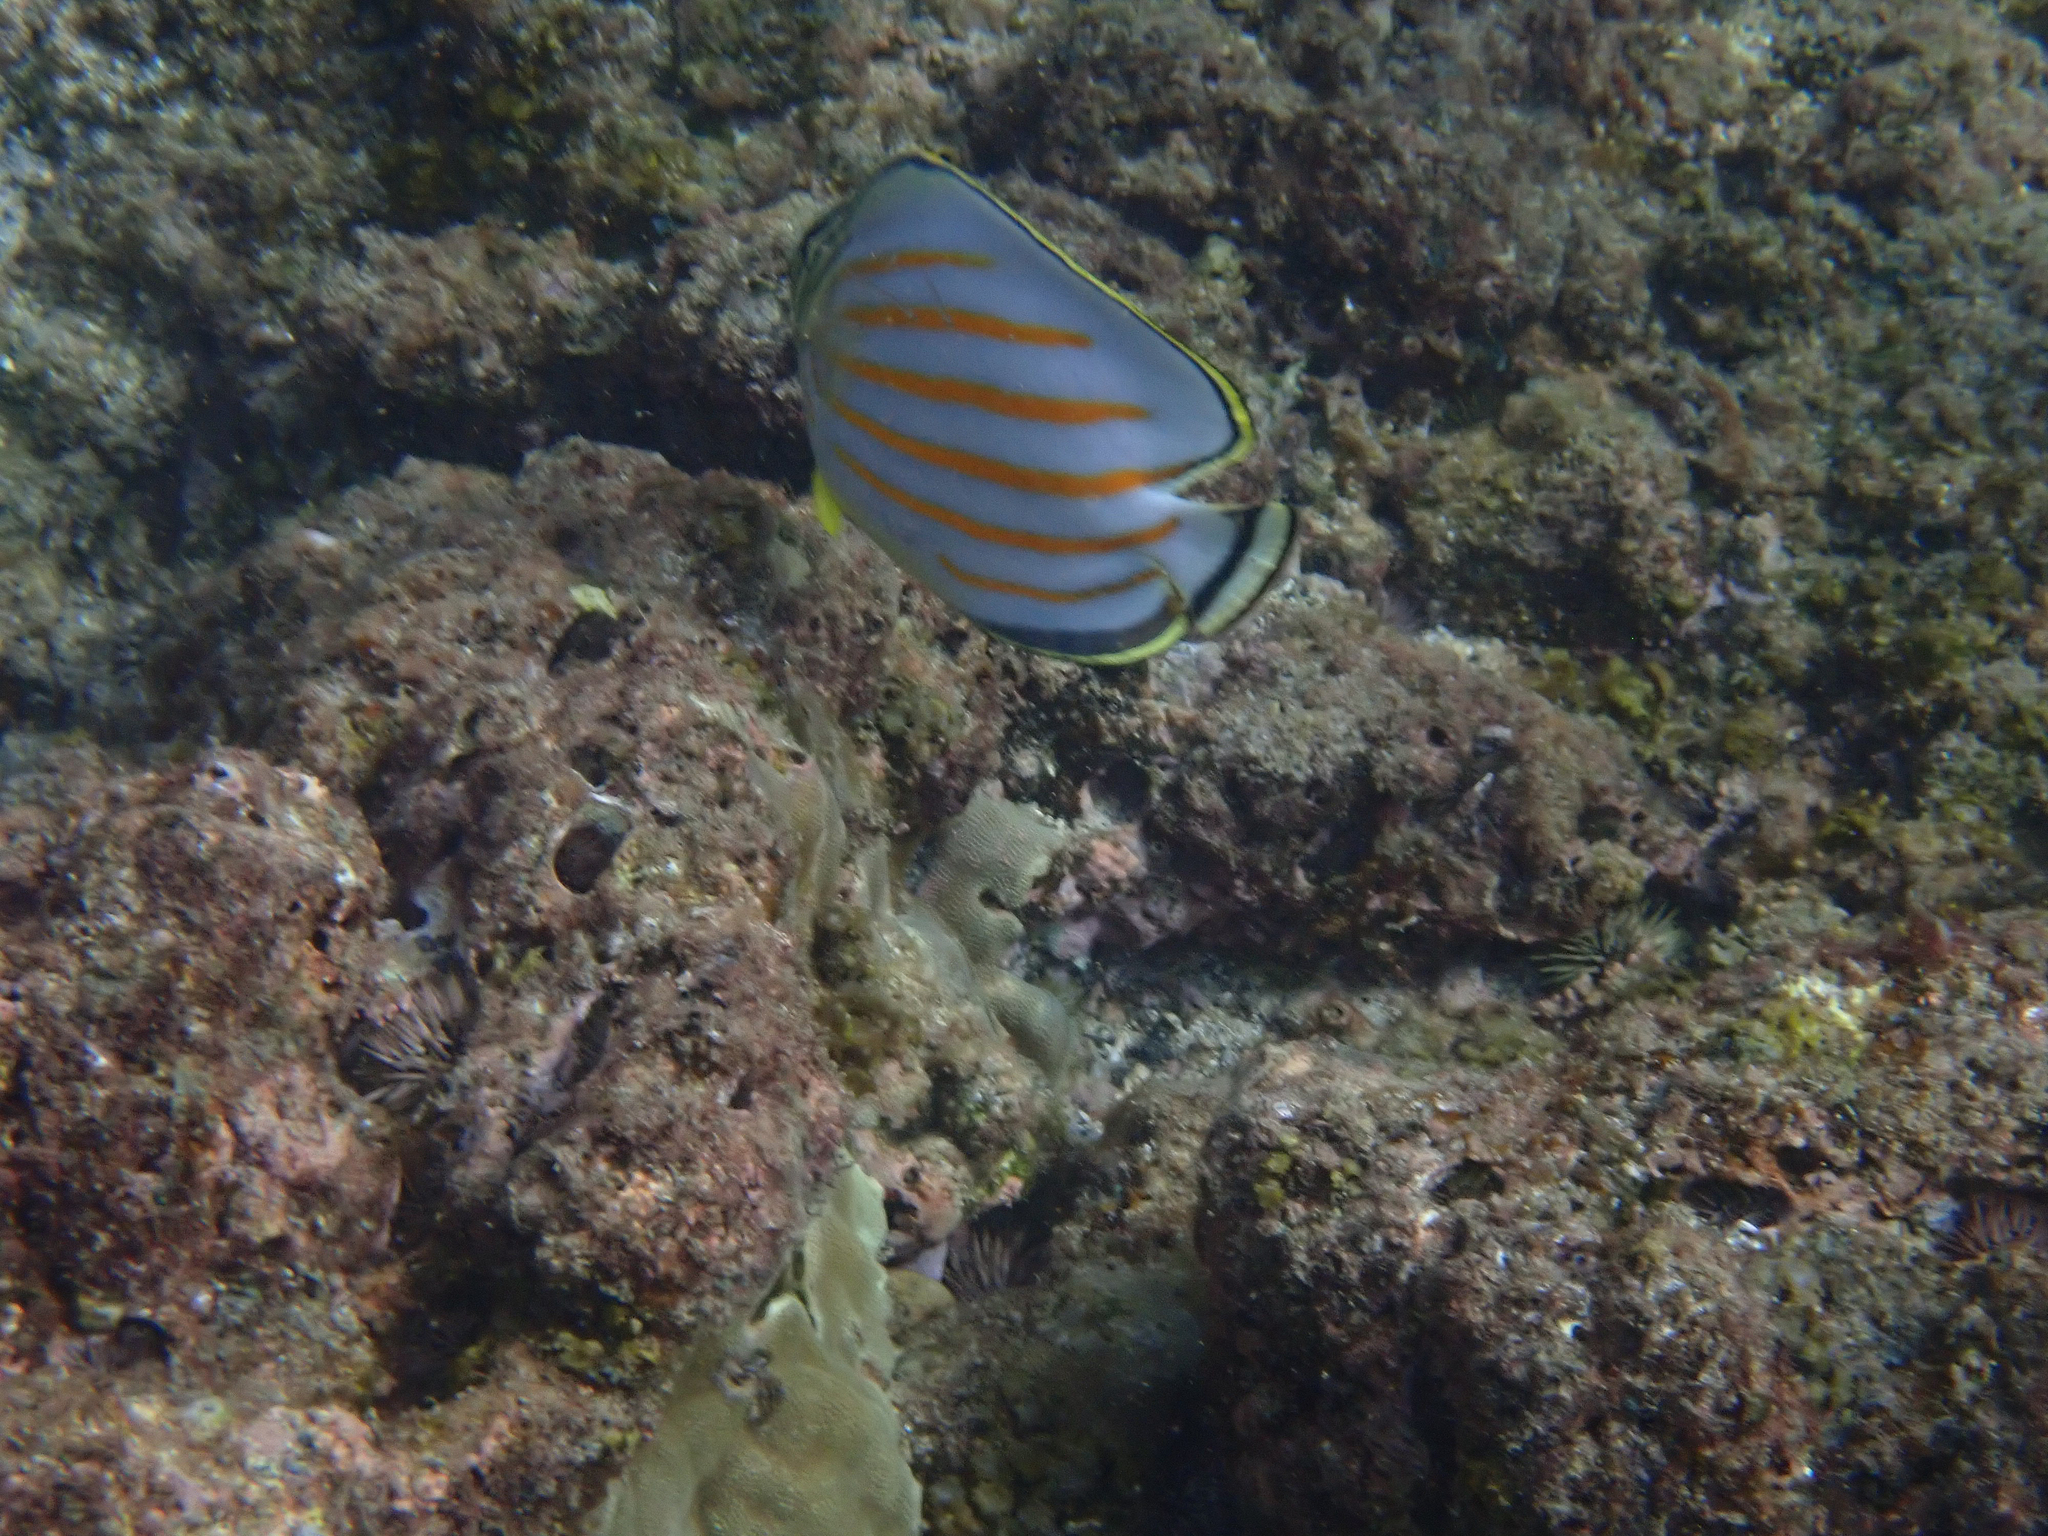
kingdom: Animalia
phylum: Chordata
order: Perciformes
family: Chaetodontidae
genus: Chaetodon
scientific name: Chaetodon ornatissimus
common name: Ornate butterflyfish
